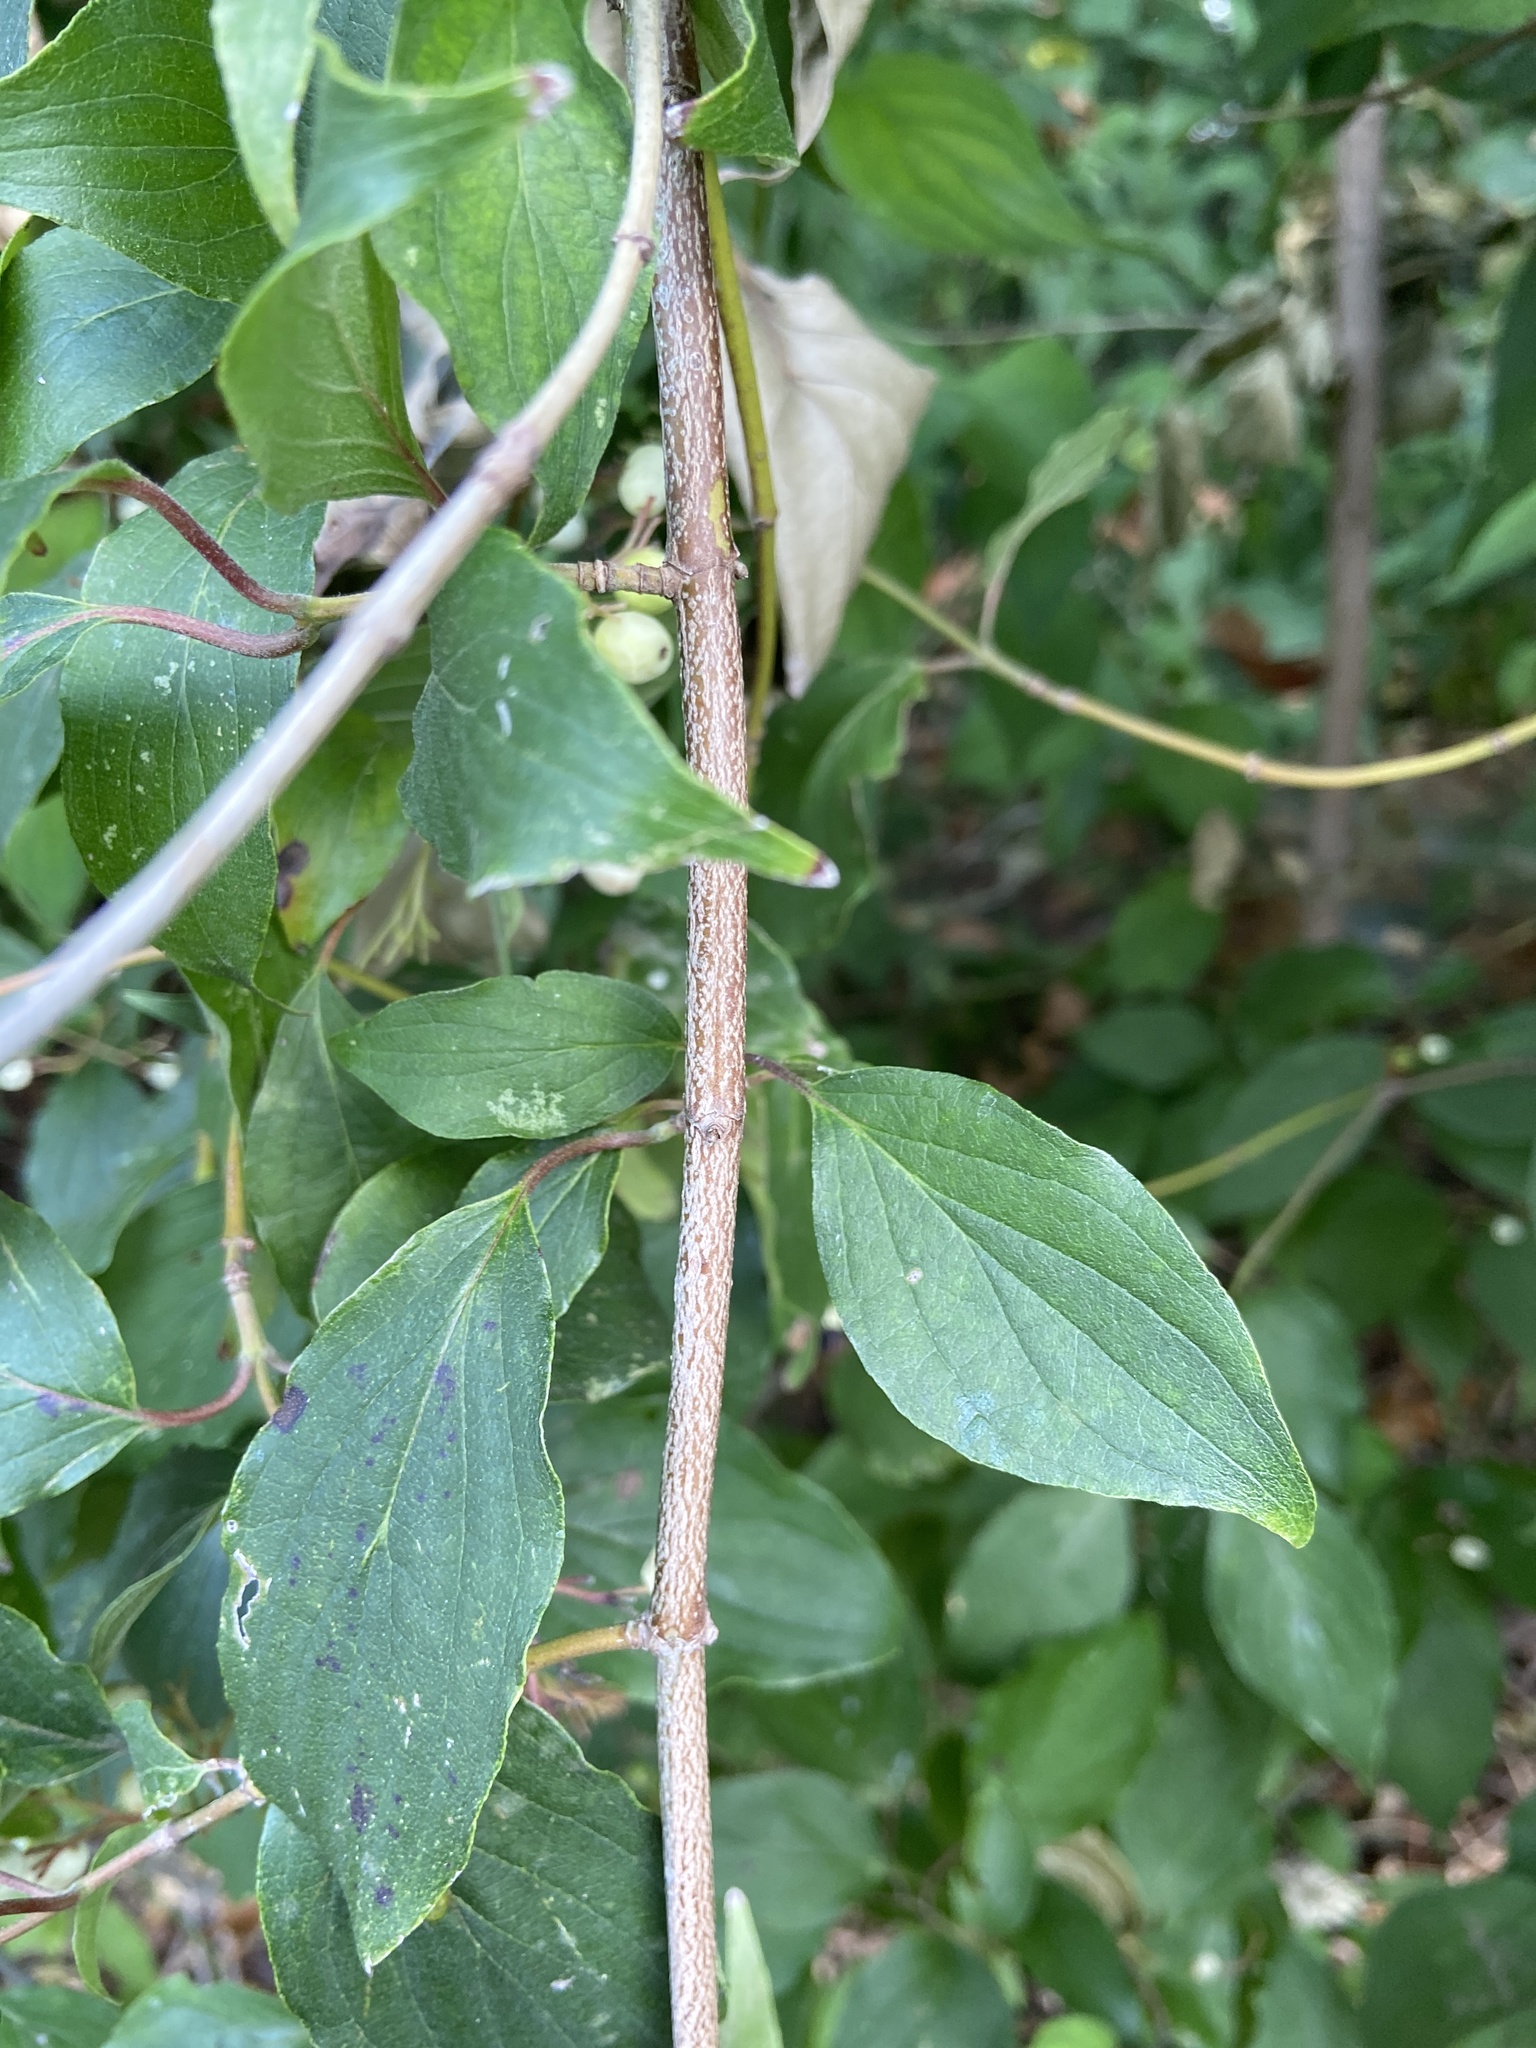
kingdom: Plantae
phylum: Tracheophyta
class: Magnoliopsida
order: Cornales
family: Cornaceae
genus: Cornus
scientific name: Cornus drummondii
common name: Rough-leaf dogwood
